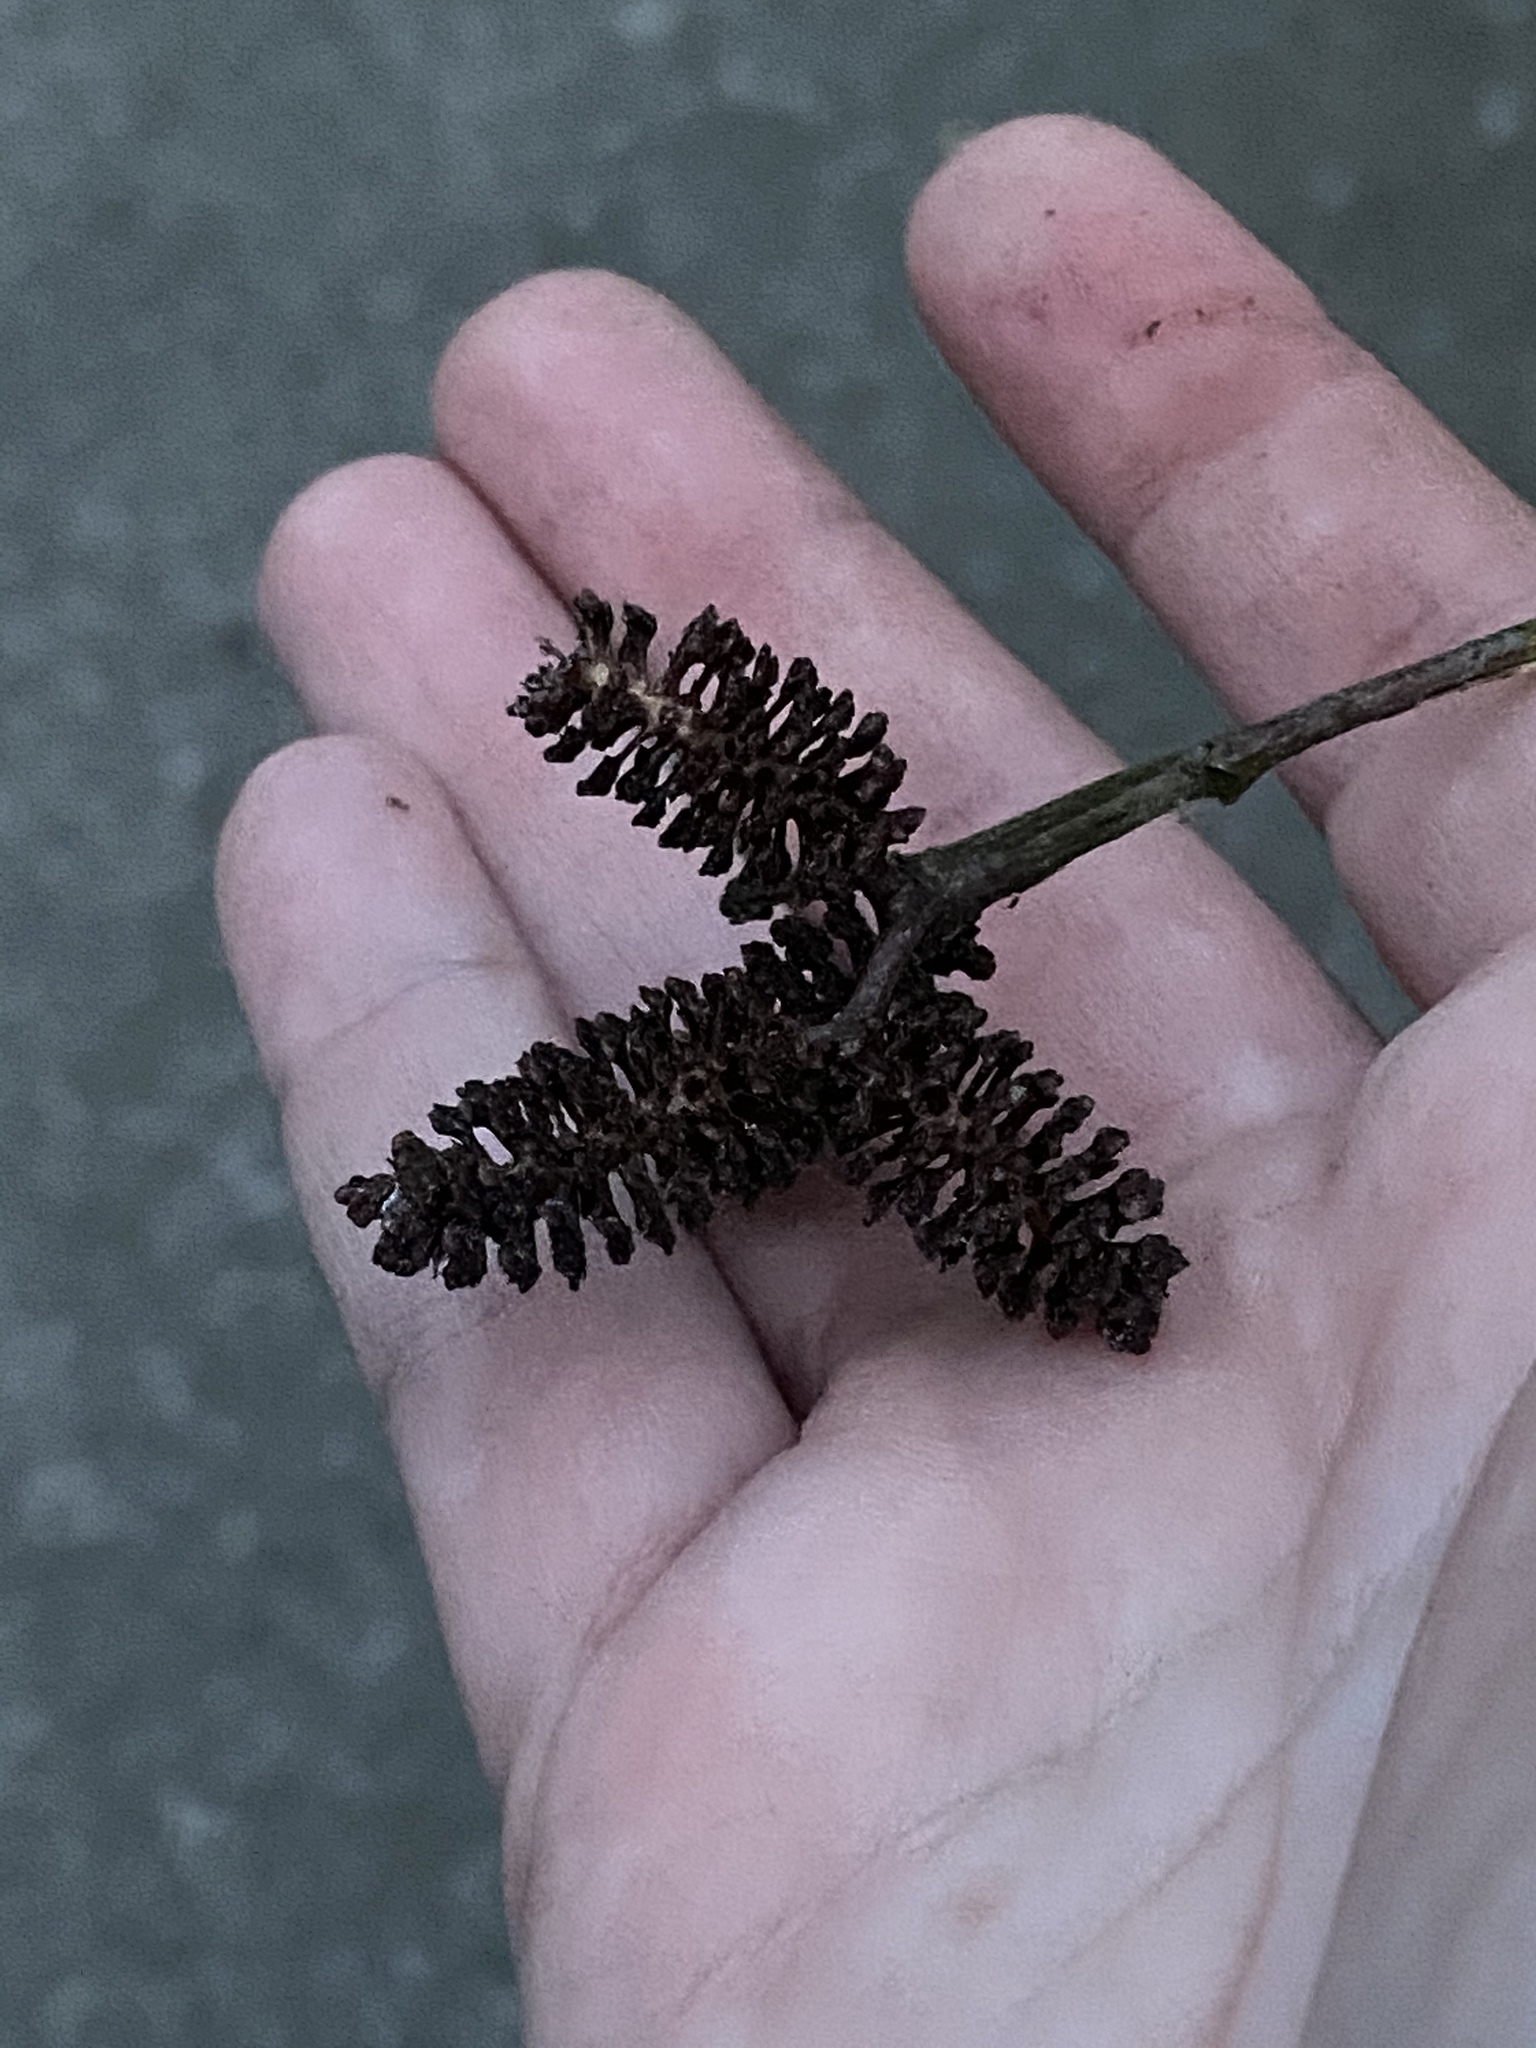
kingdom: Plantae
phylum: Tracheophyta
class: Magnoliopsida
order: Fagales
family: Betulaceae
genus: Alnus
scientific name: Alnus serrulata
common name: Hazel alder
